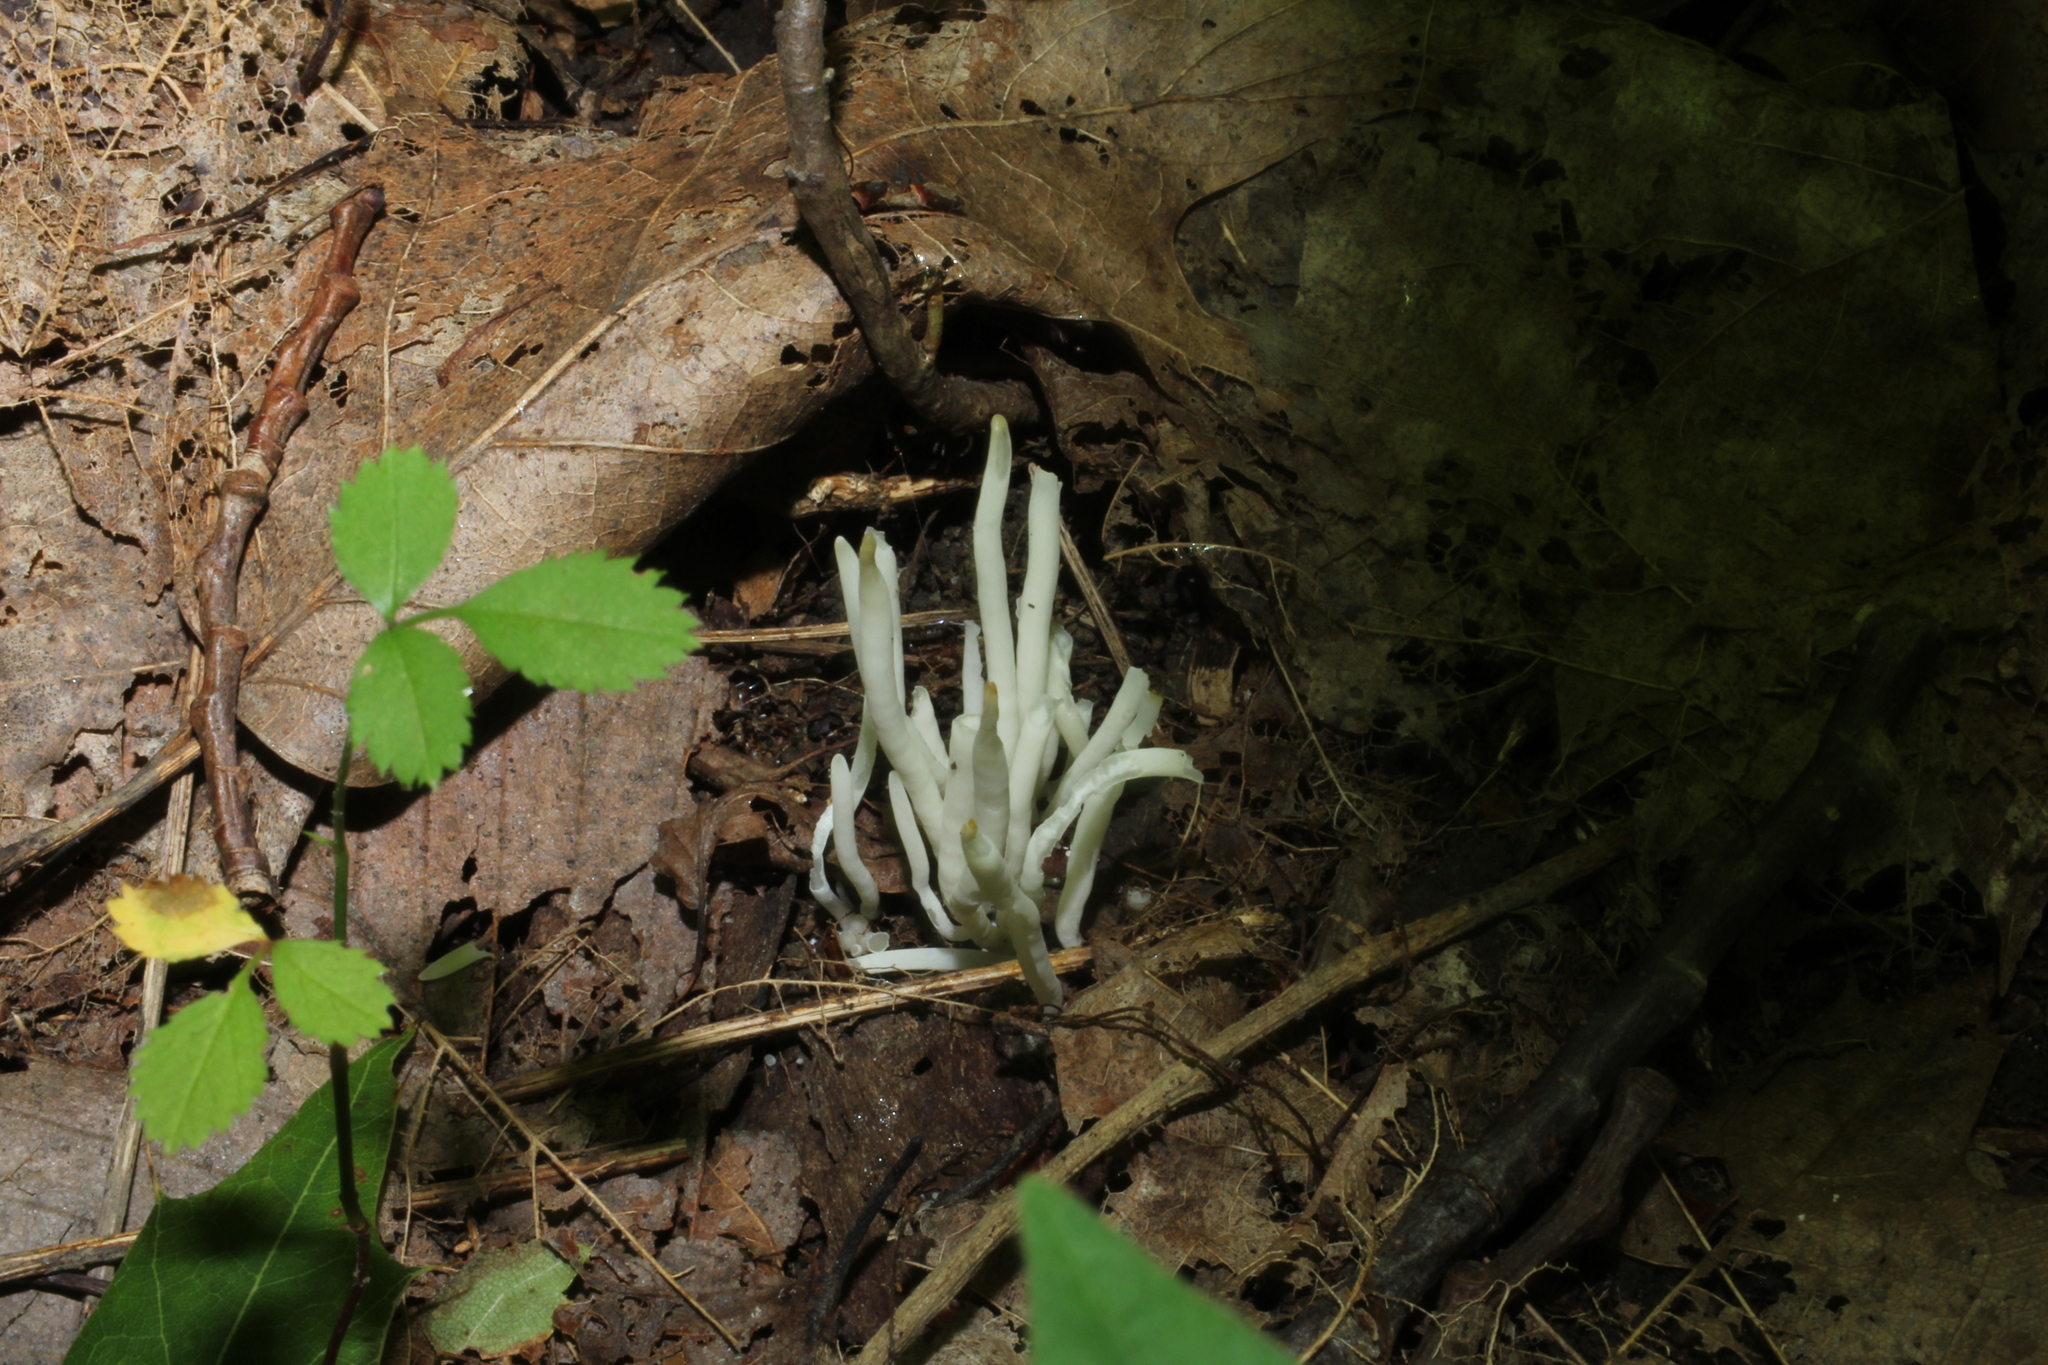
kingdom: Fungi
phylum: Basidiomycota
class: Agaricomycetes
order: Agaricales
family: Clavariaceae
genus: Clavaria
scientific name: Clavaria fragilis
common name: White spindles
